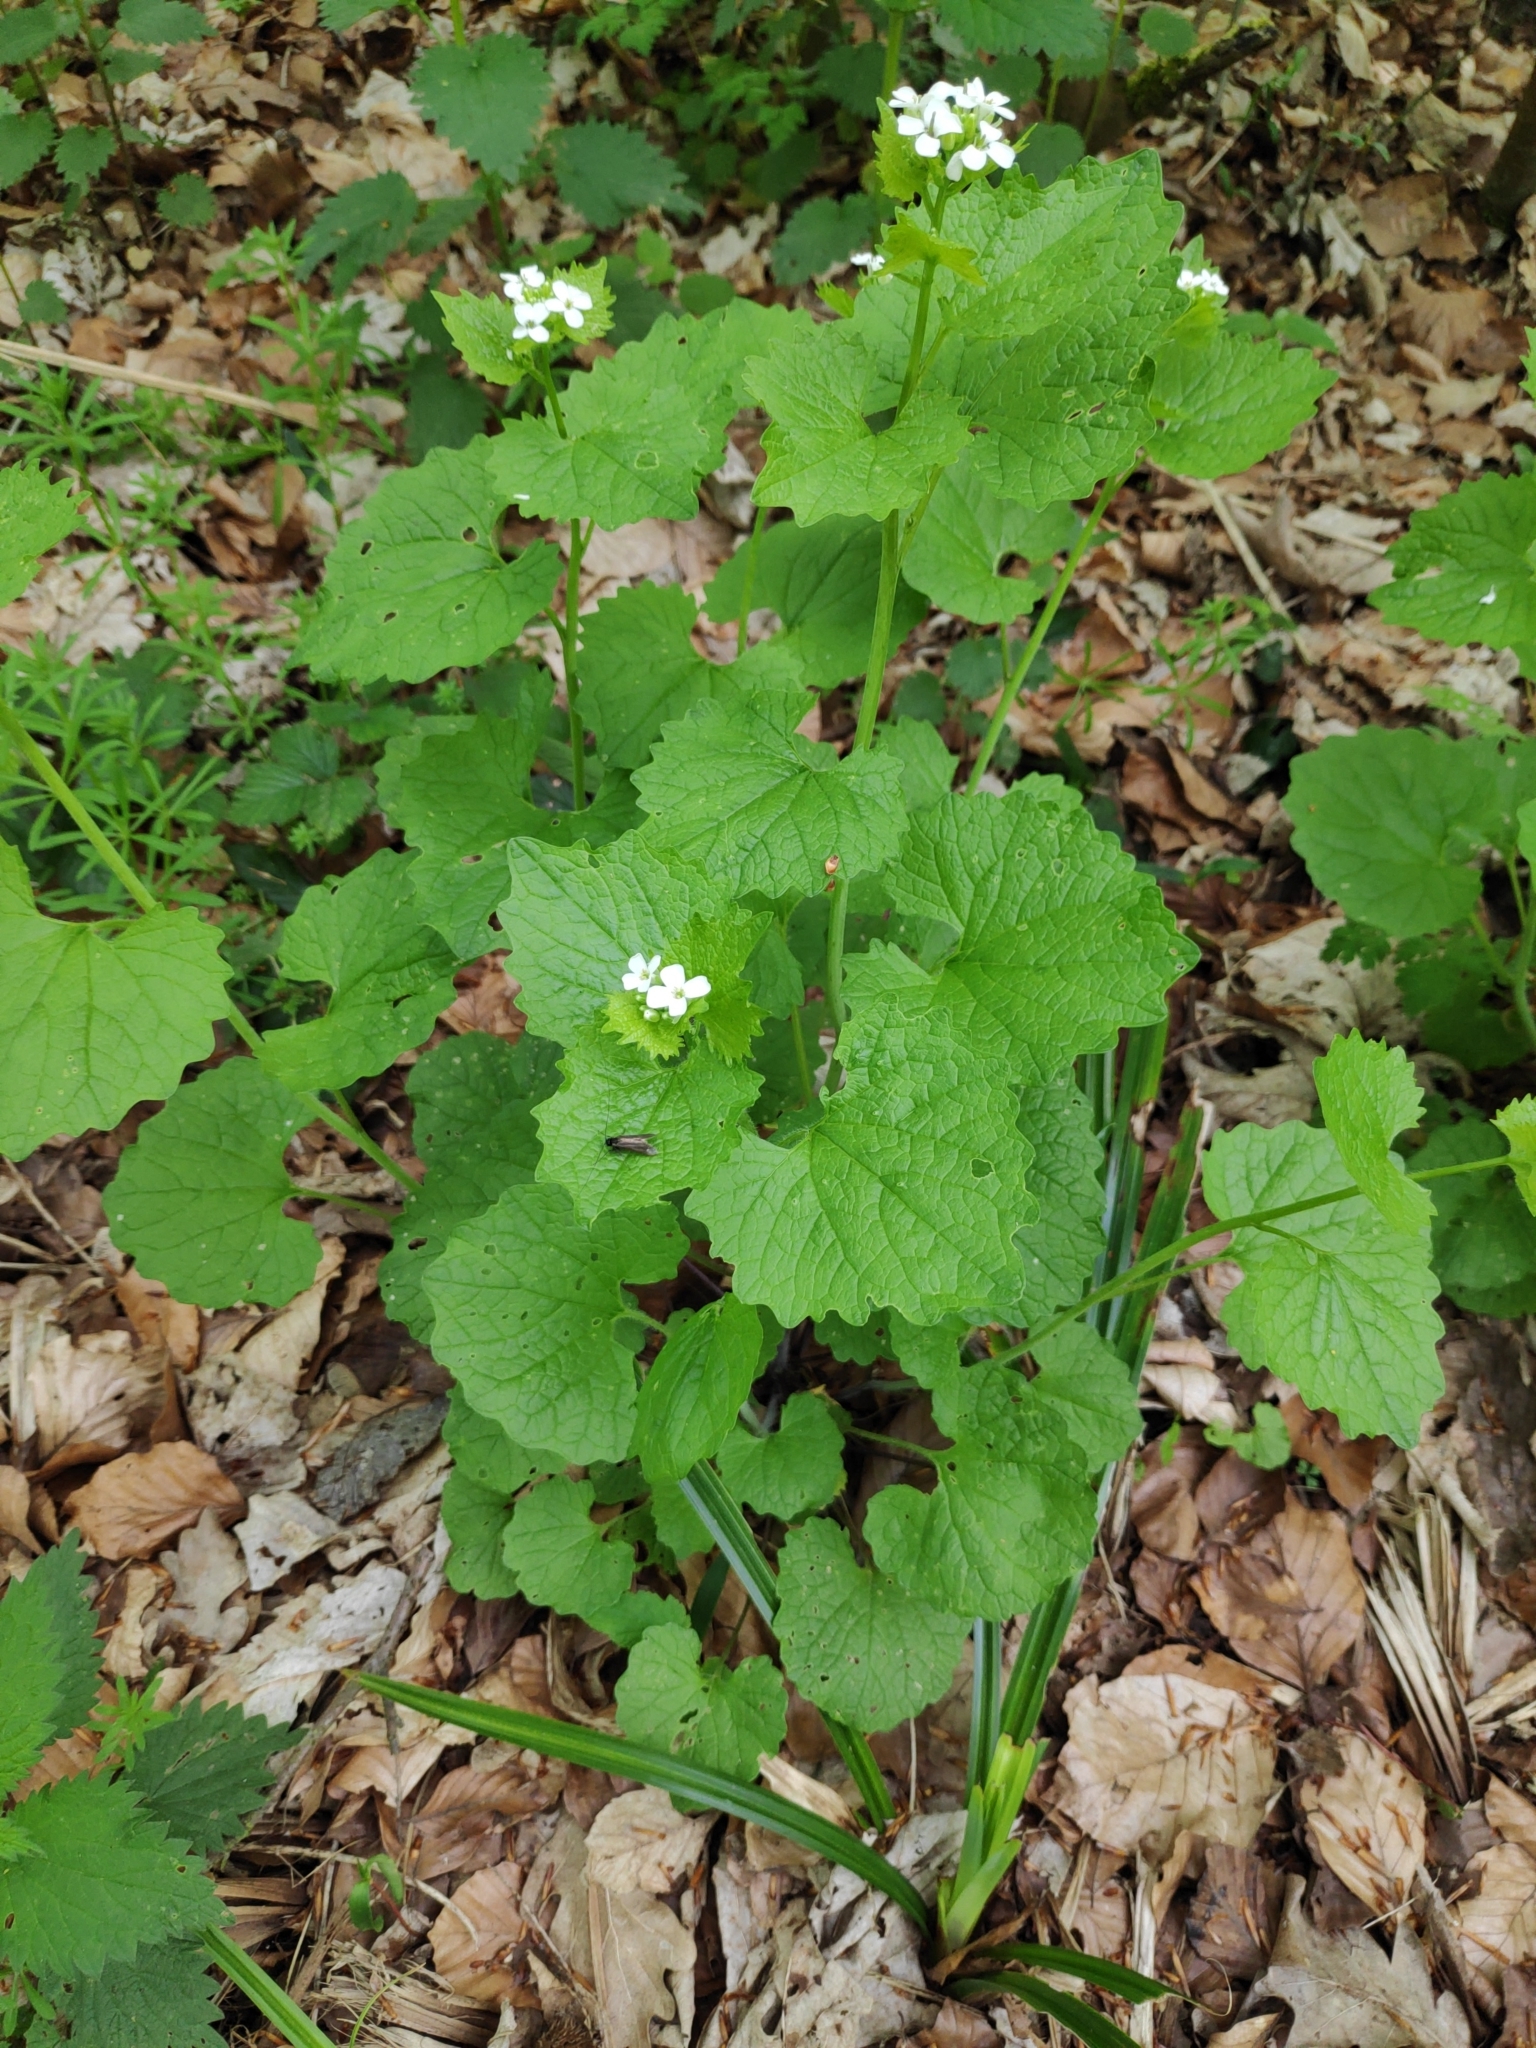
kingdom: Plantae
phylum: Tracheophyta
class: Magnoliopsida
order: Brassicales
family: Brassicaceae
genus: Alliaria
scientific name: Alliaria petiolata
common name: Garlic mustard
